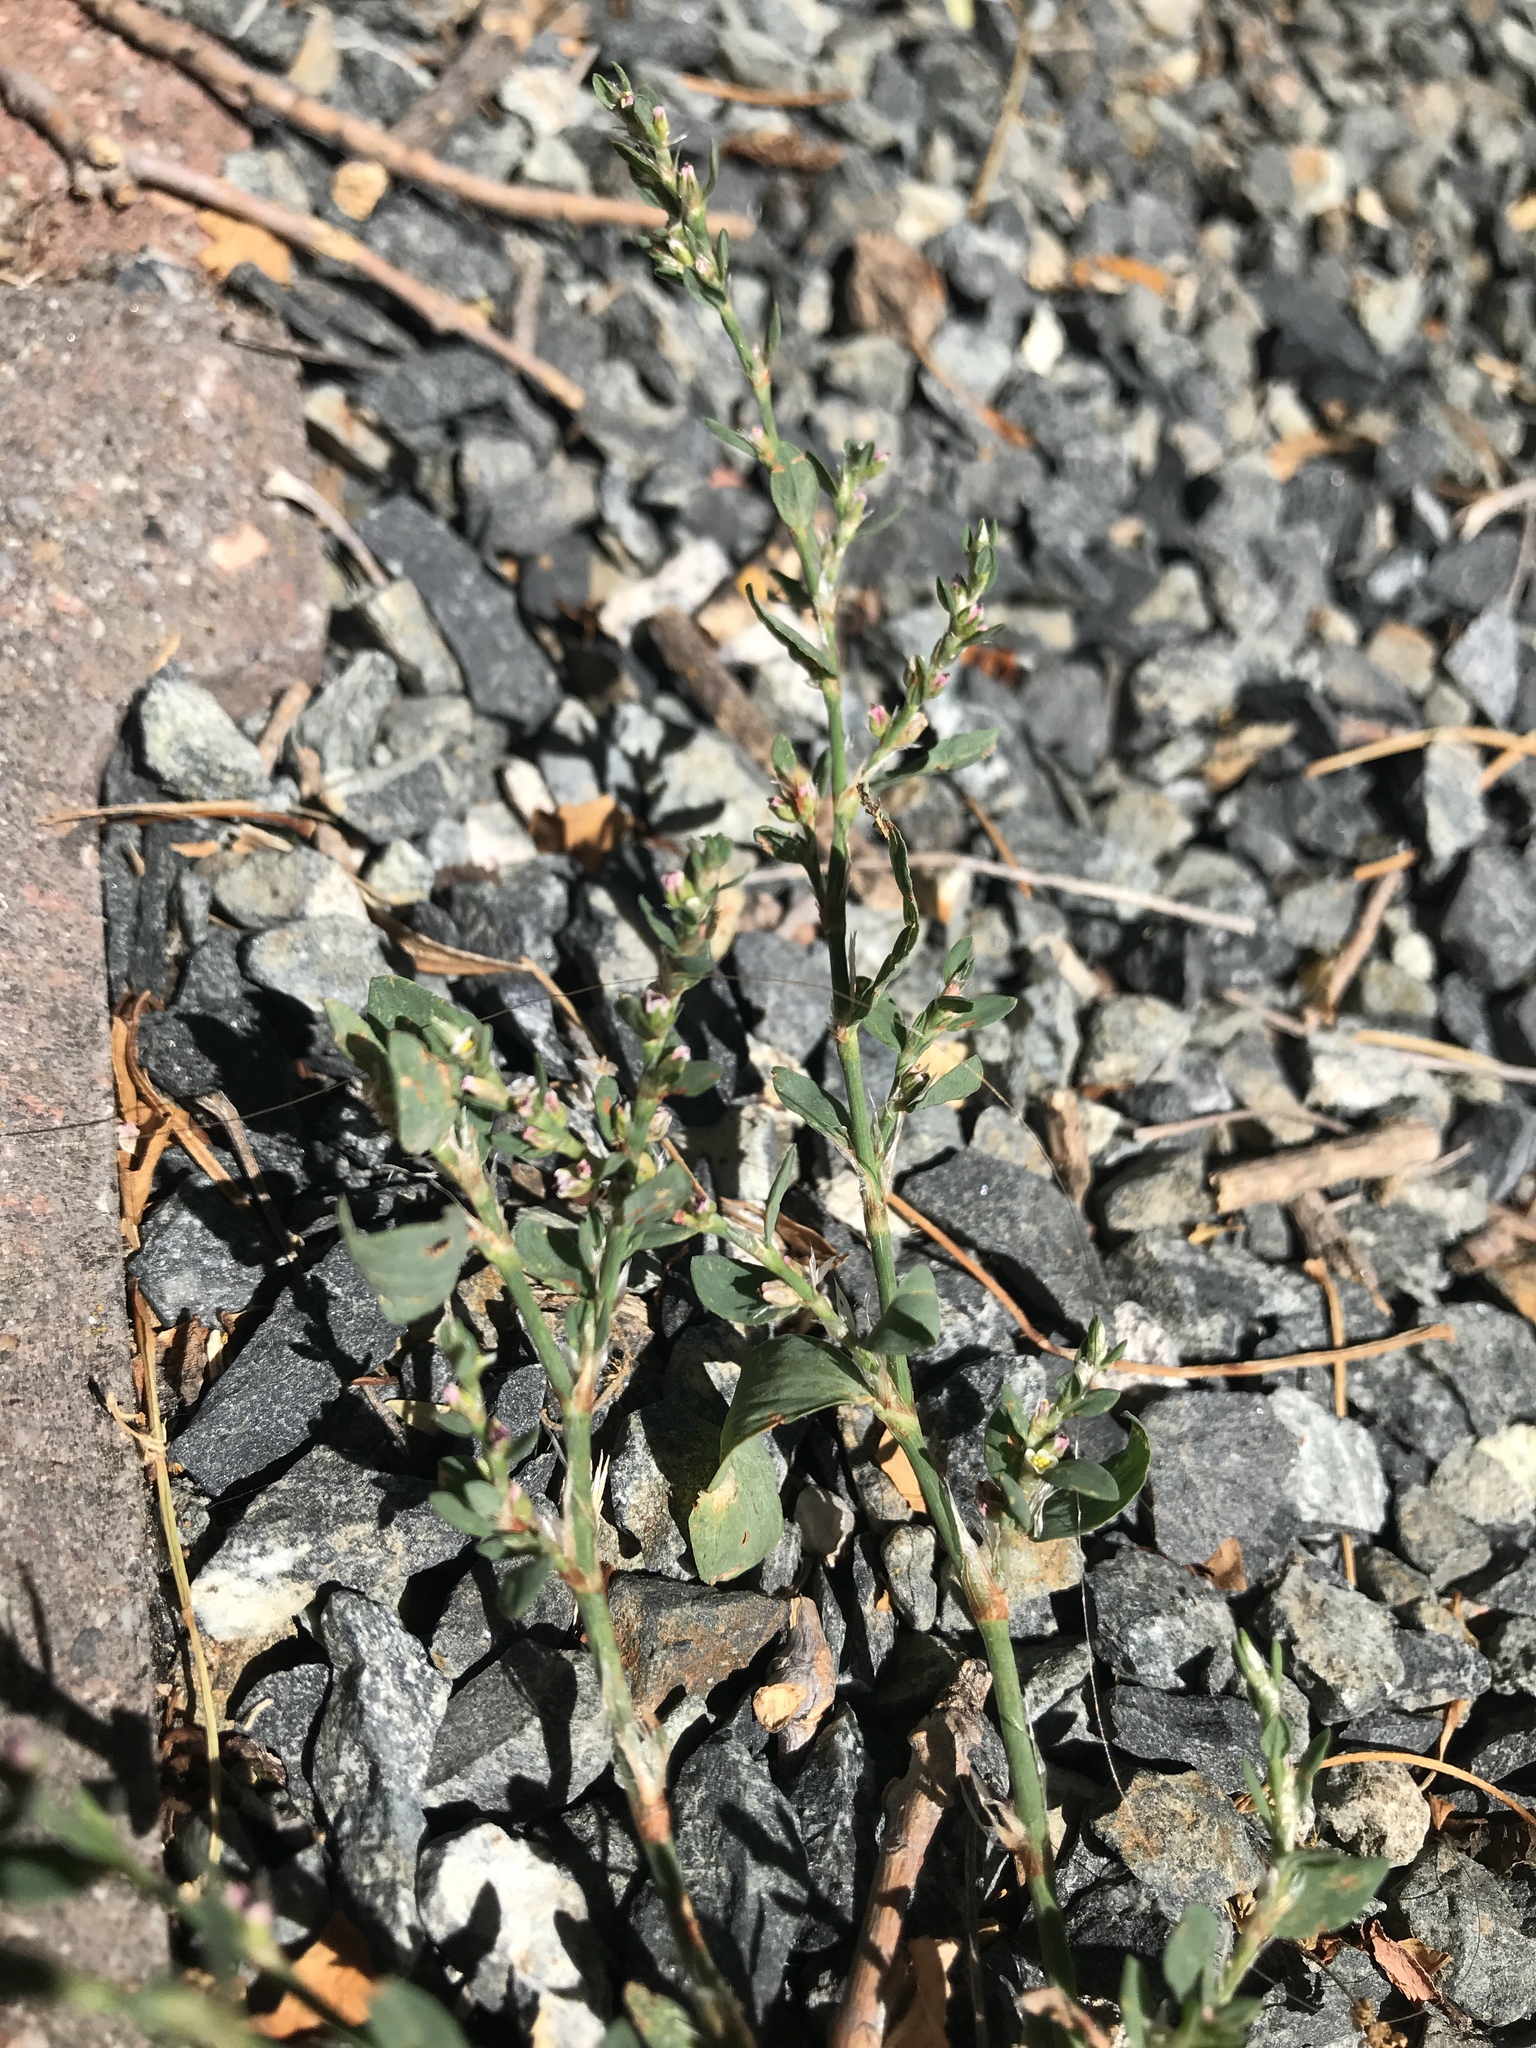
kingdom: Plantae
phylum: Tracheophyta
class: Magnoliopsida
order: Caryophyllales
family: Polygonaceae
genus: Polygonum
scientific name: Polygonum aviculare
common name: Prostrate knotweed
